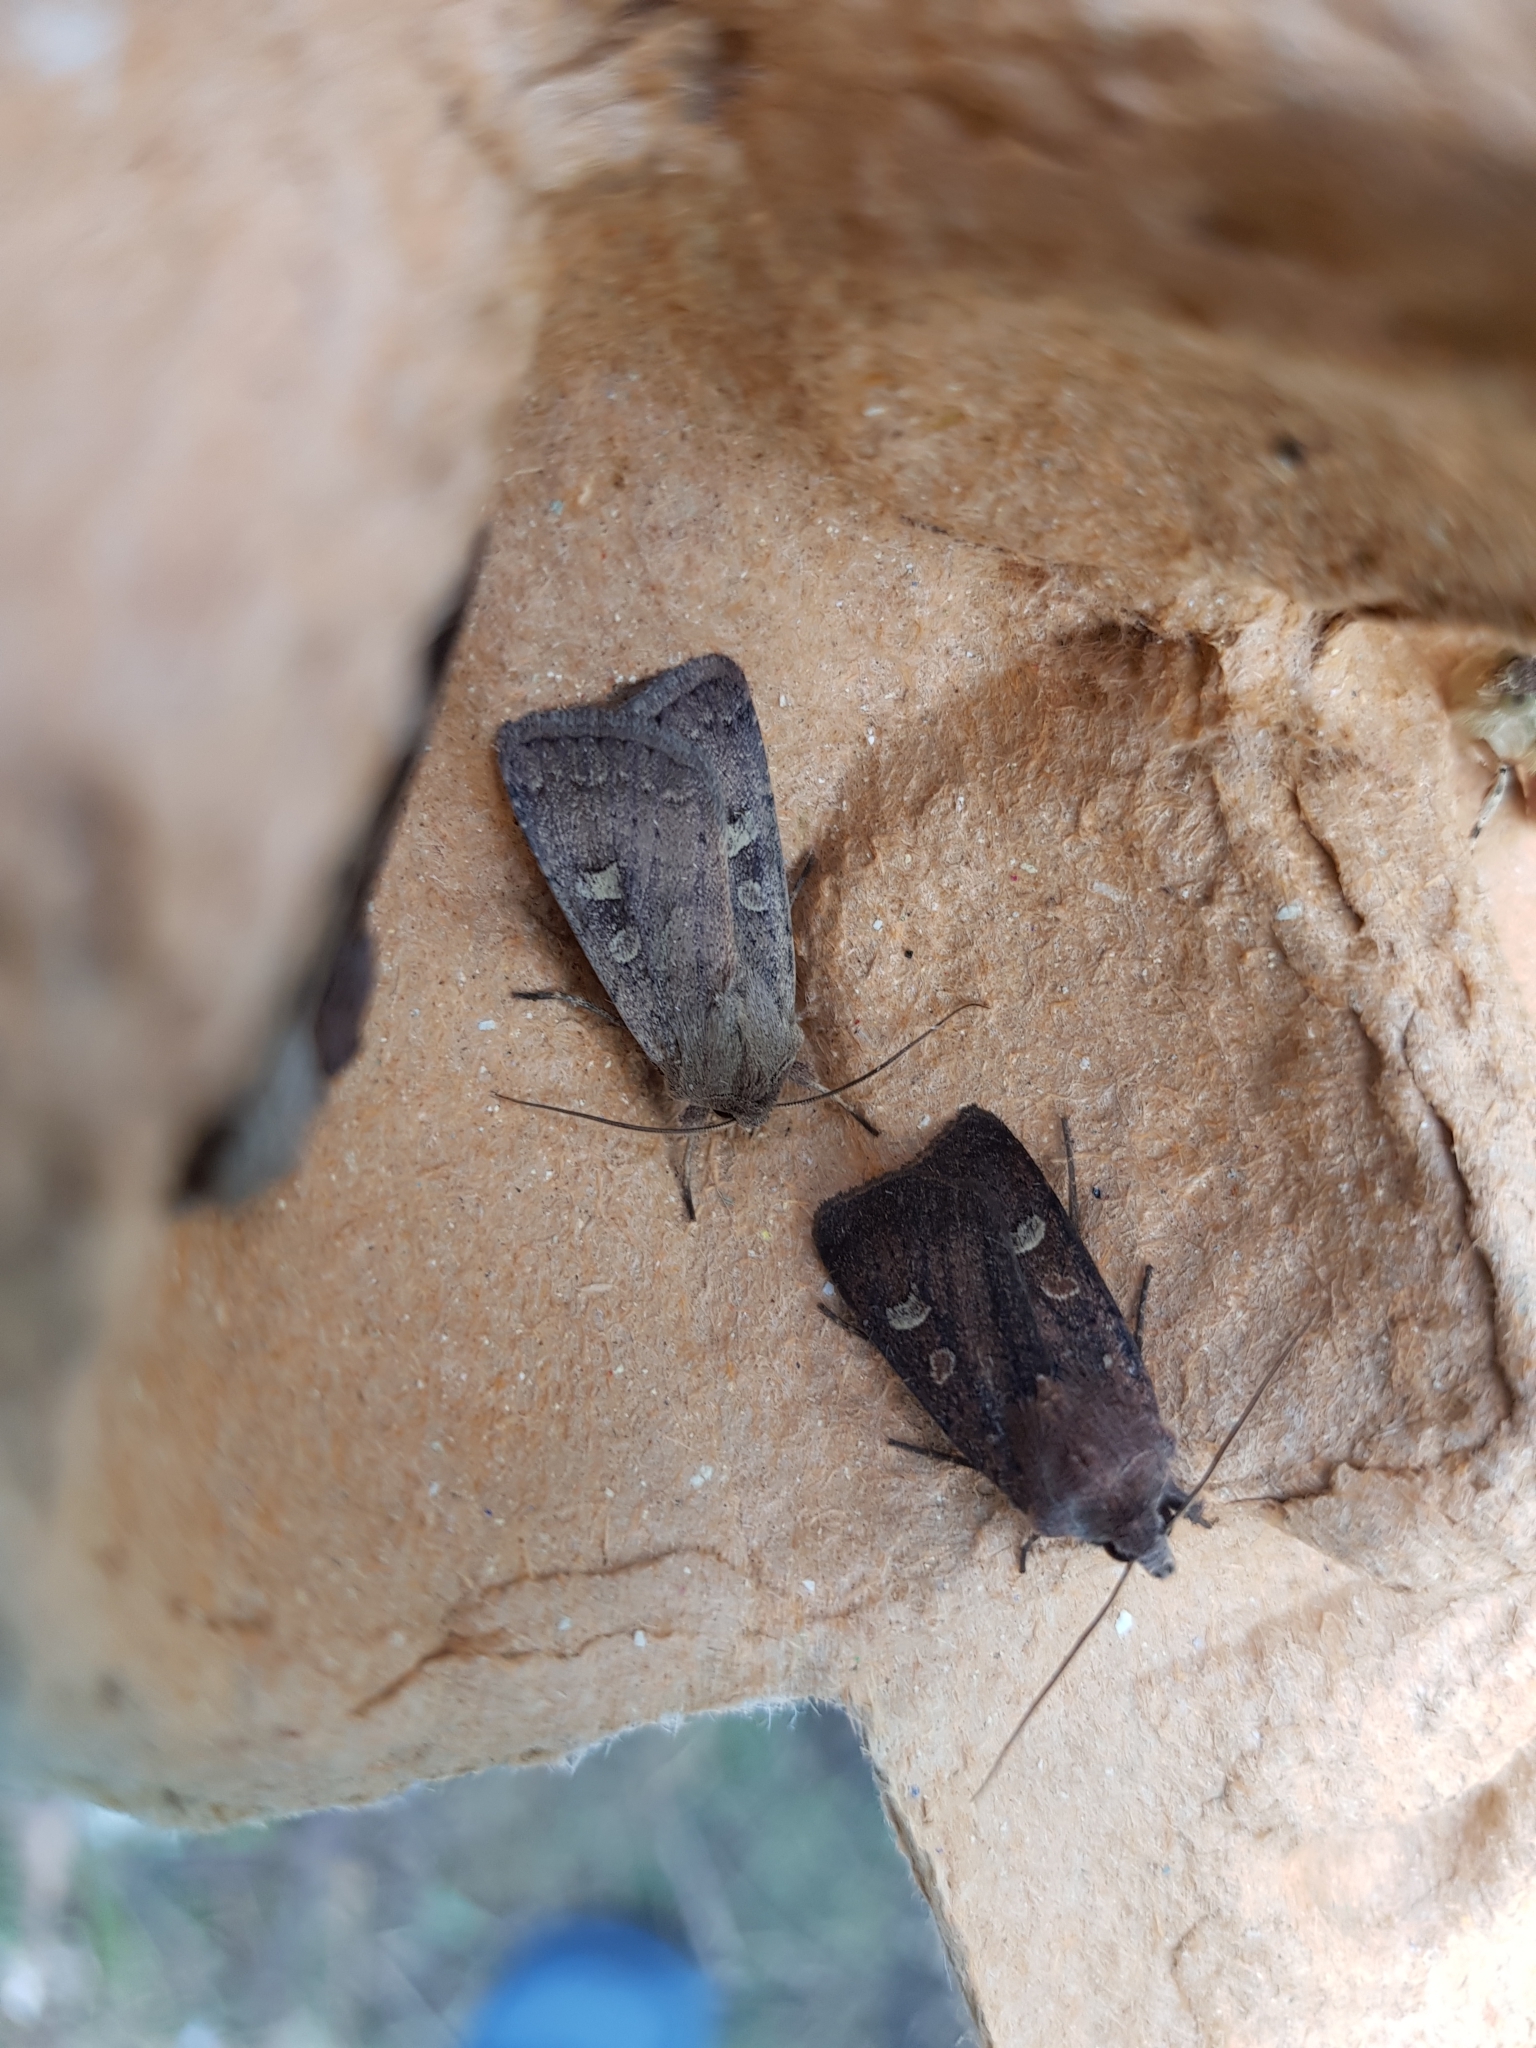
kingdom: Animalia
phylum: Arthropoda
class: Insecta
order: Lepidoptera
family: Noctuidae
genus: Xestia
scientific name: Xestia xanthographa
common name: Square-spot rustic
